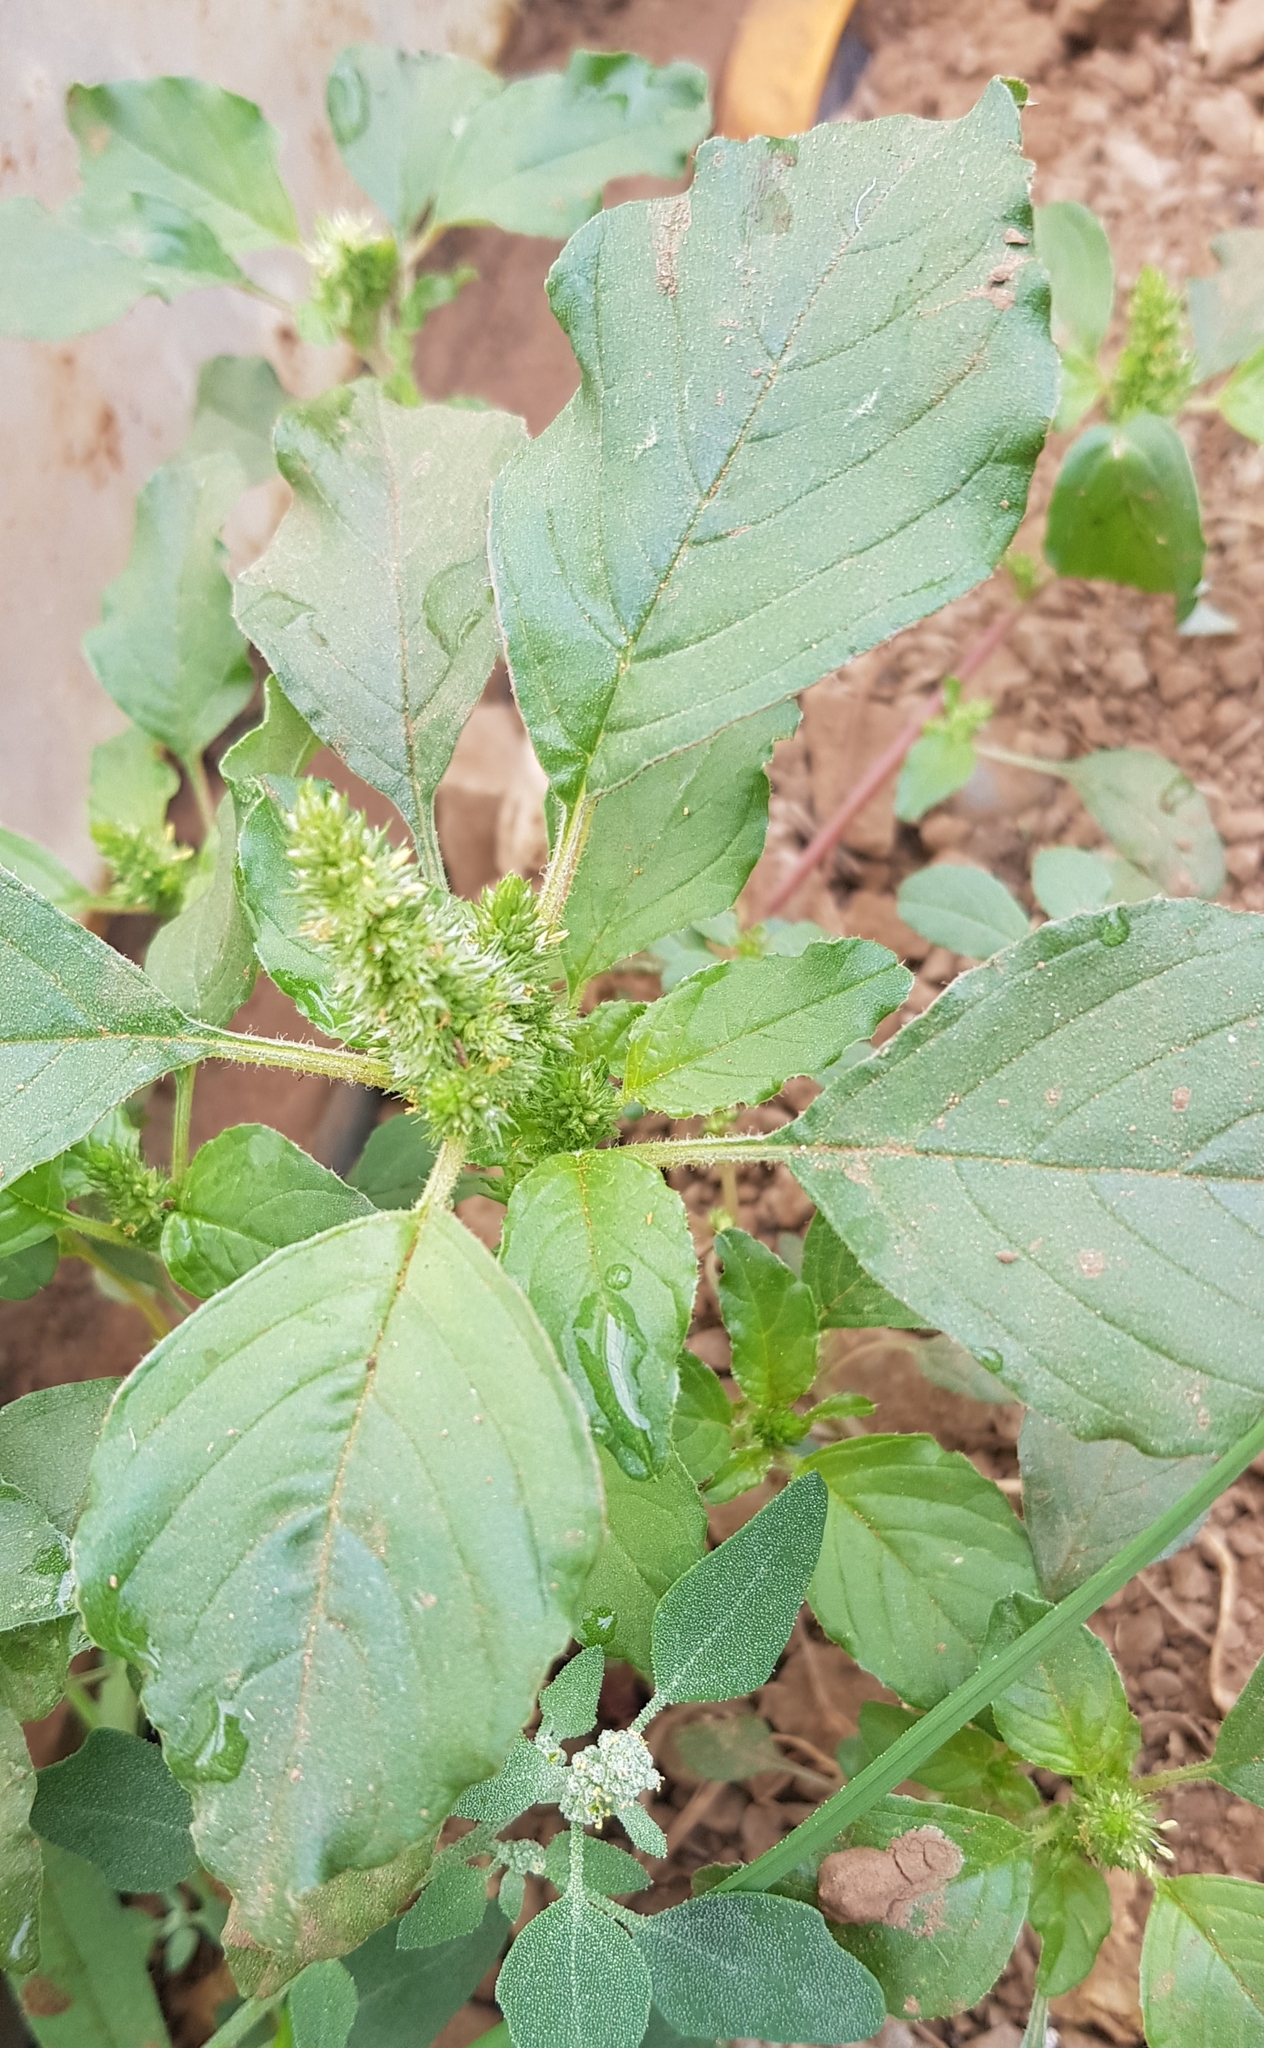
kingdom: Plantae
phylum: Tracheophyta
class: Magnoliopsida
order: Caryophyllales
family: Amaranthaceae
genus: Amaranthus
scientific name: Amaranthus retroflexus
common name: Redroot amaranth
